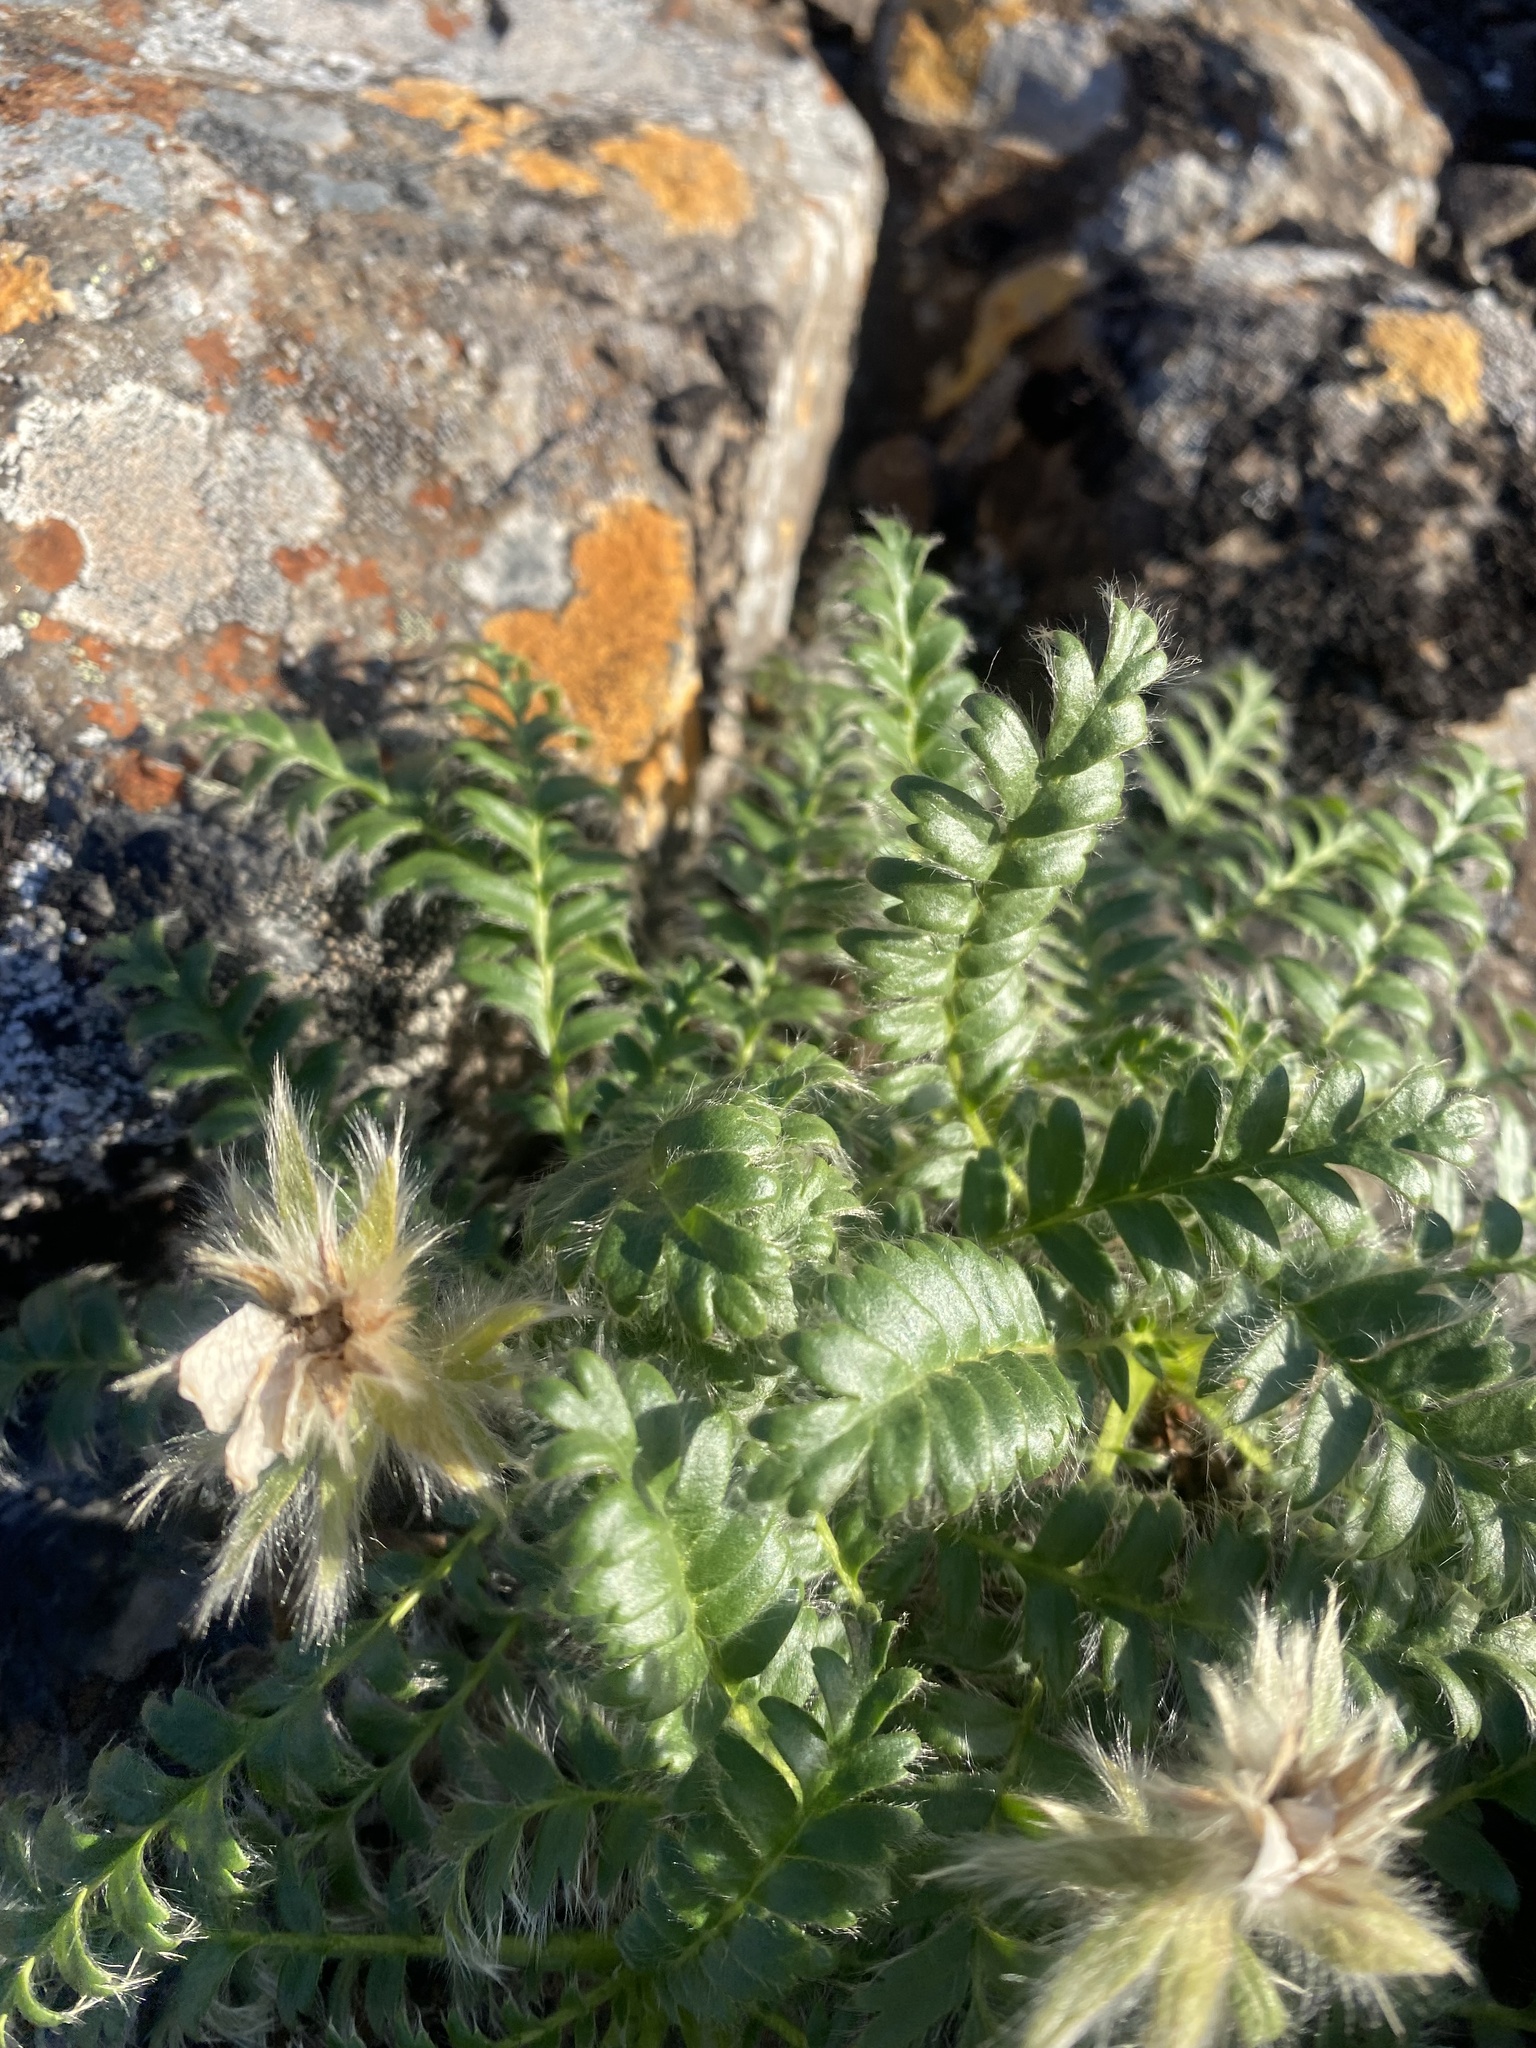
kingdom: Plantae
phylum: Tracheophyta
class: Magnoliopsida
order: Rosales
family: Rosaceae
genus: Geum
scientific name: Geum glaciale
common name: Glacier avens
